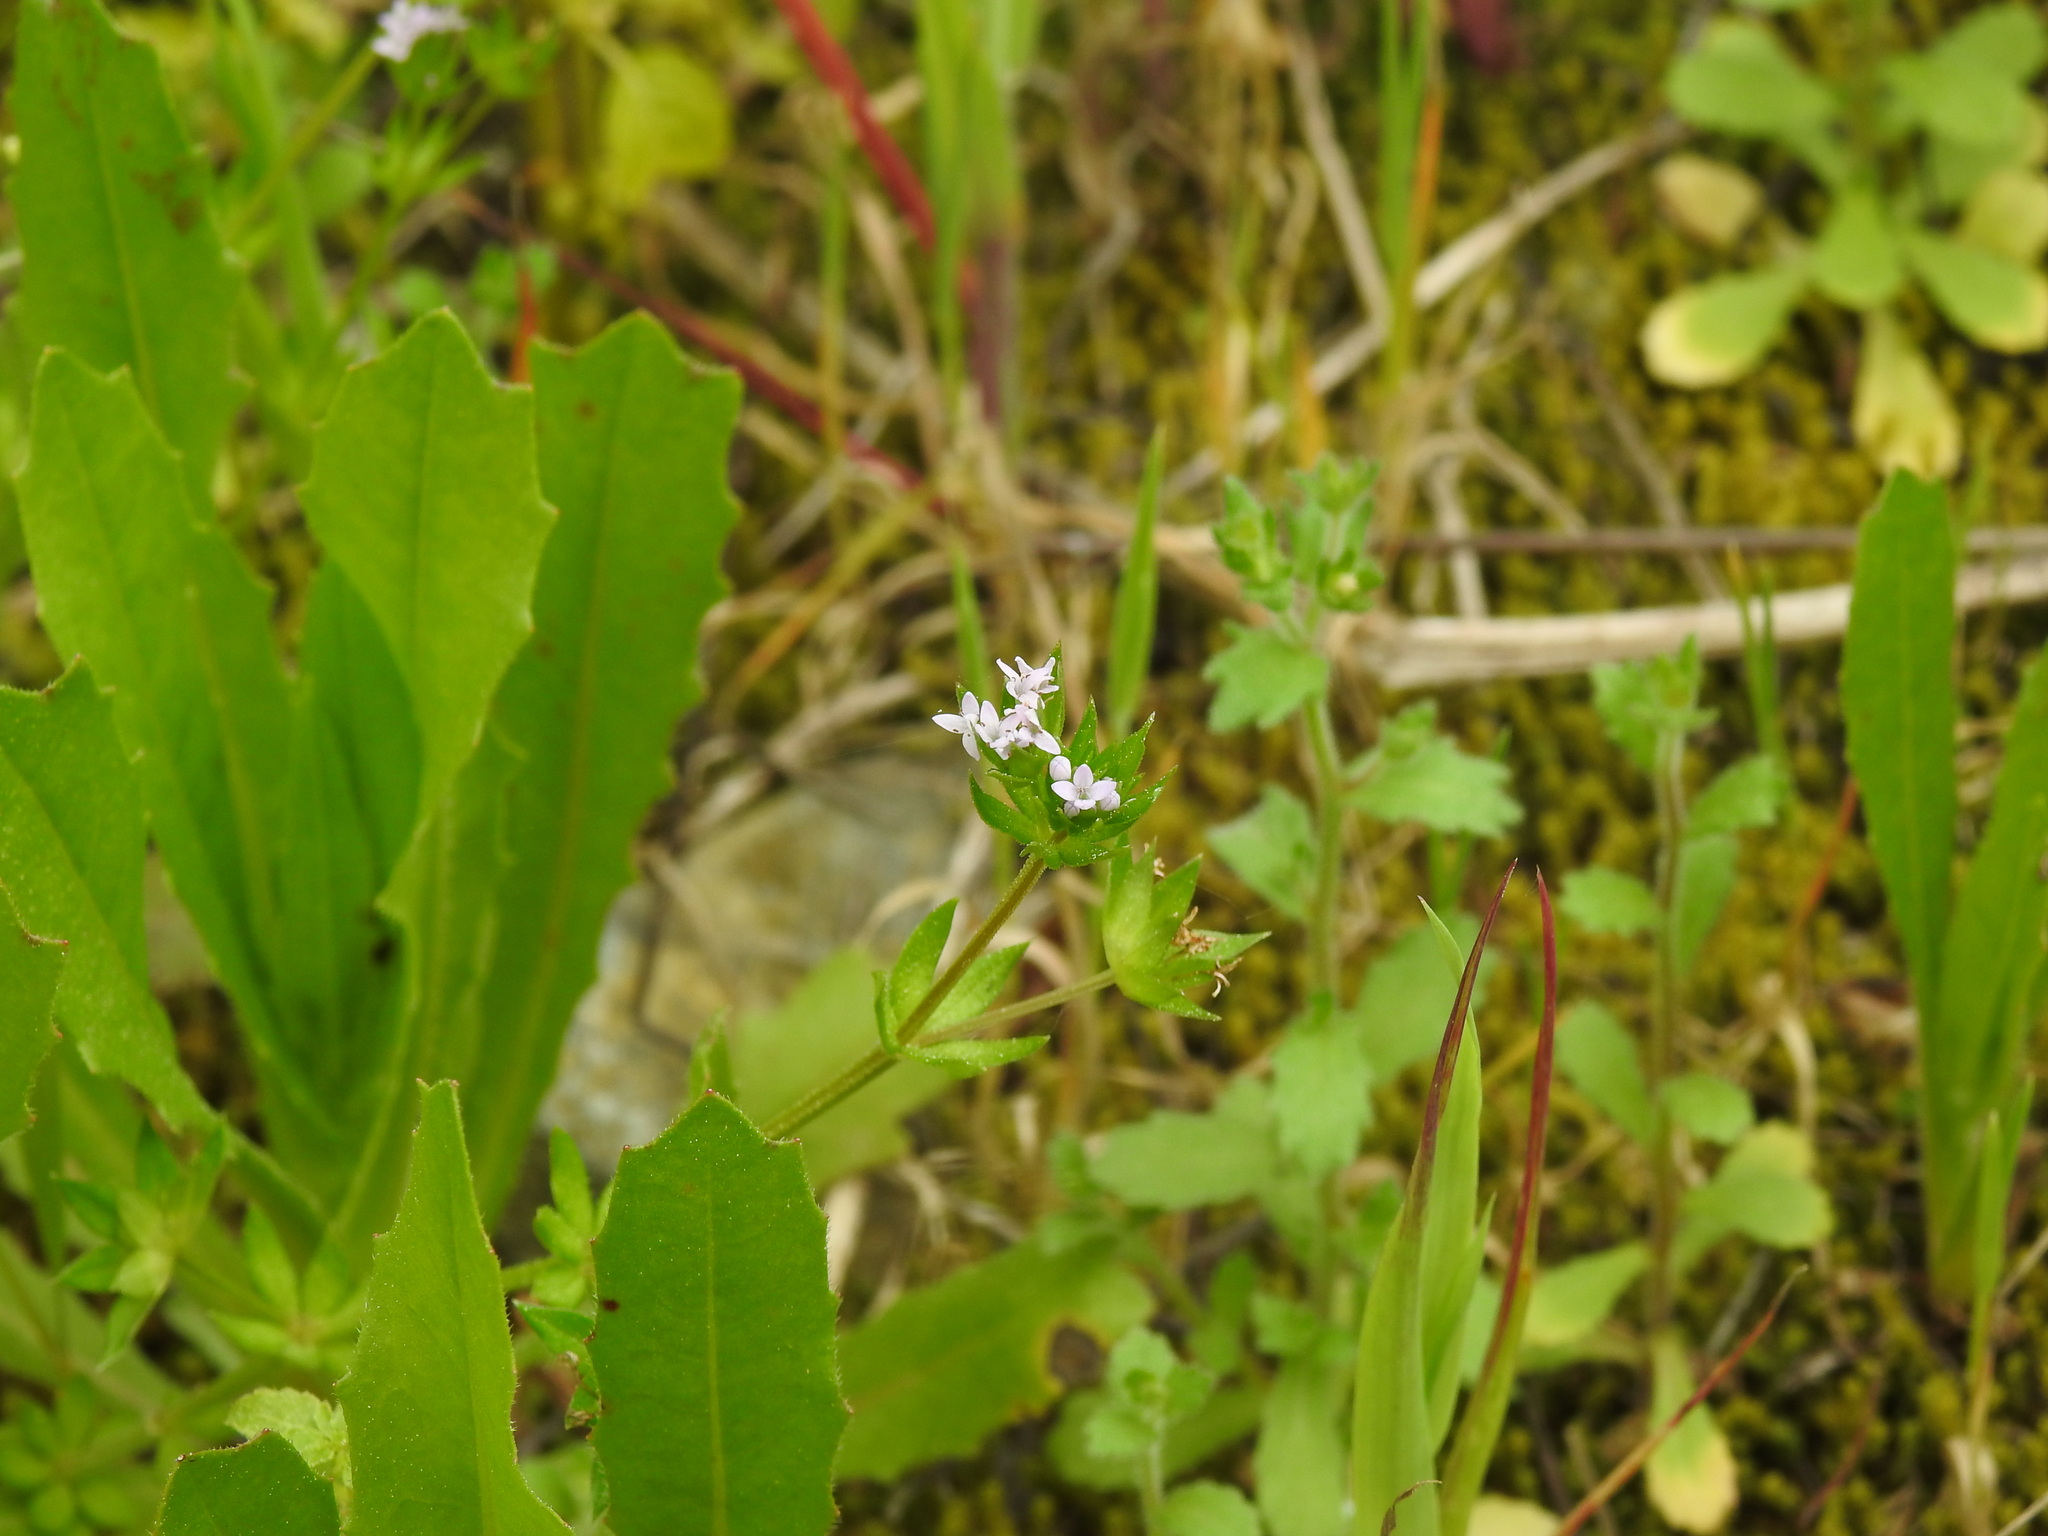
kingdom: Plantae
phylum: Tracheophyta
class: Magnoliopsida
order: Gentianales
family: Rubiaceae
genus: Sherardia
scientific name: Sherardia arvensis
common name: Field madder
